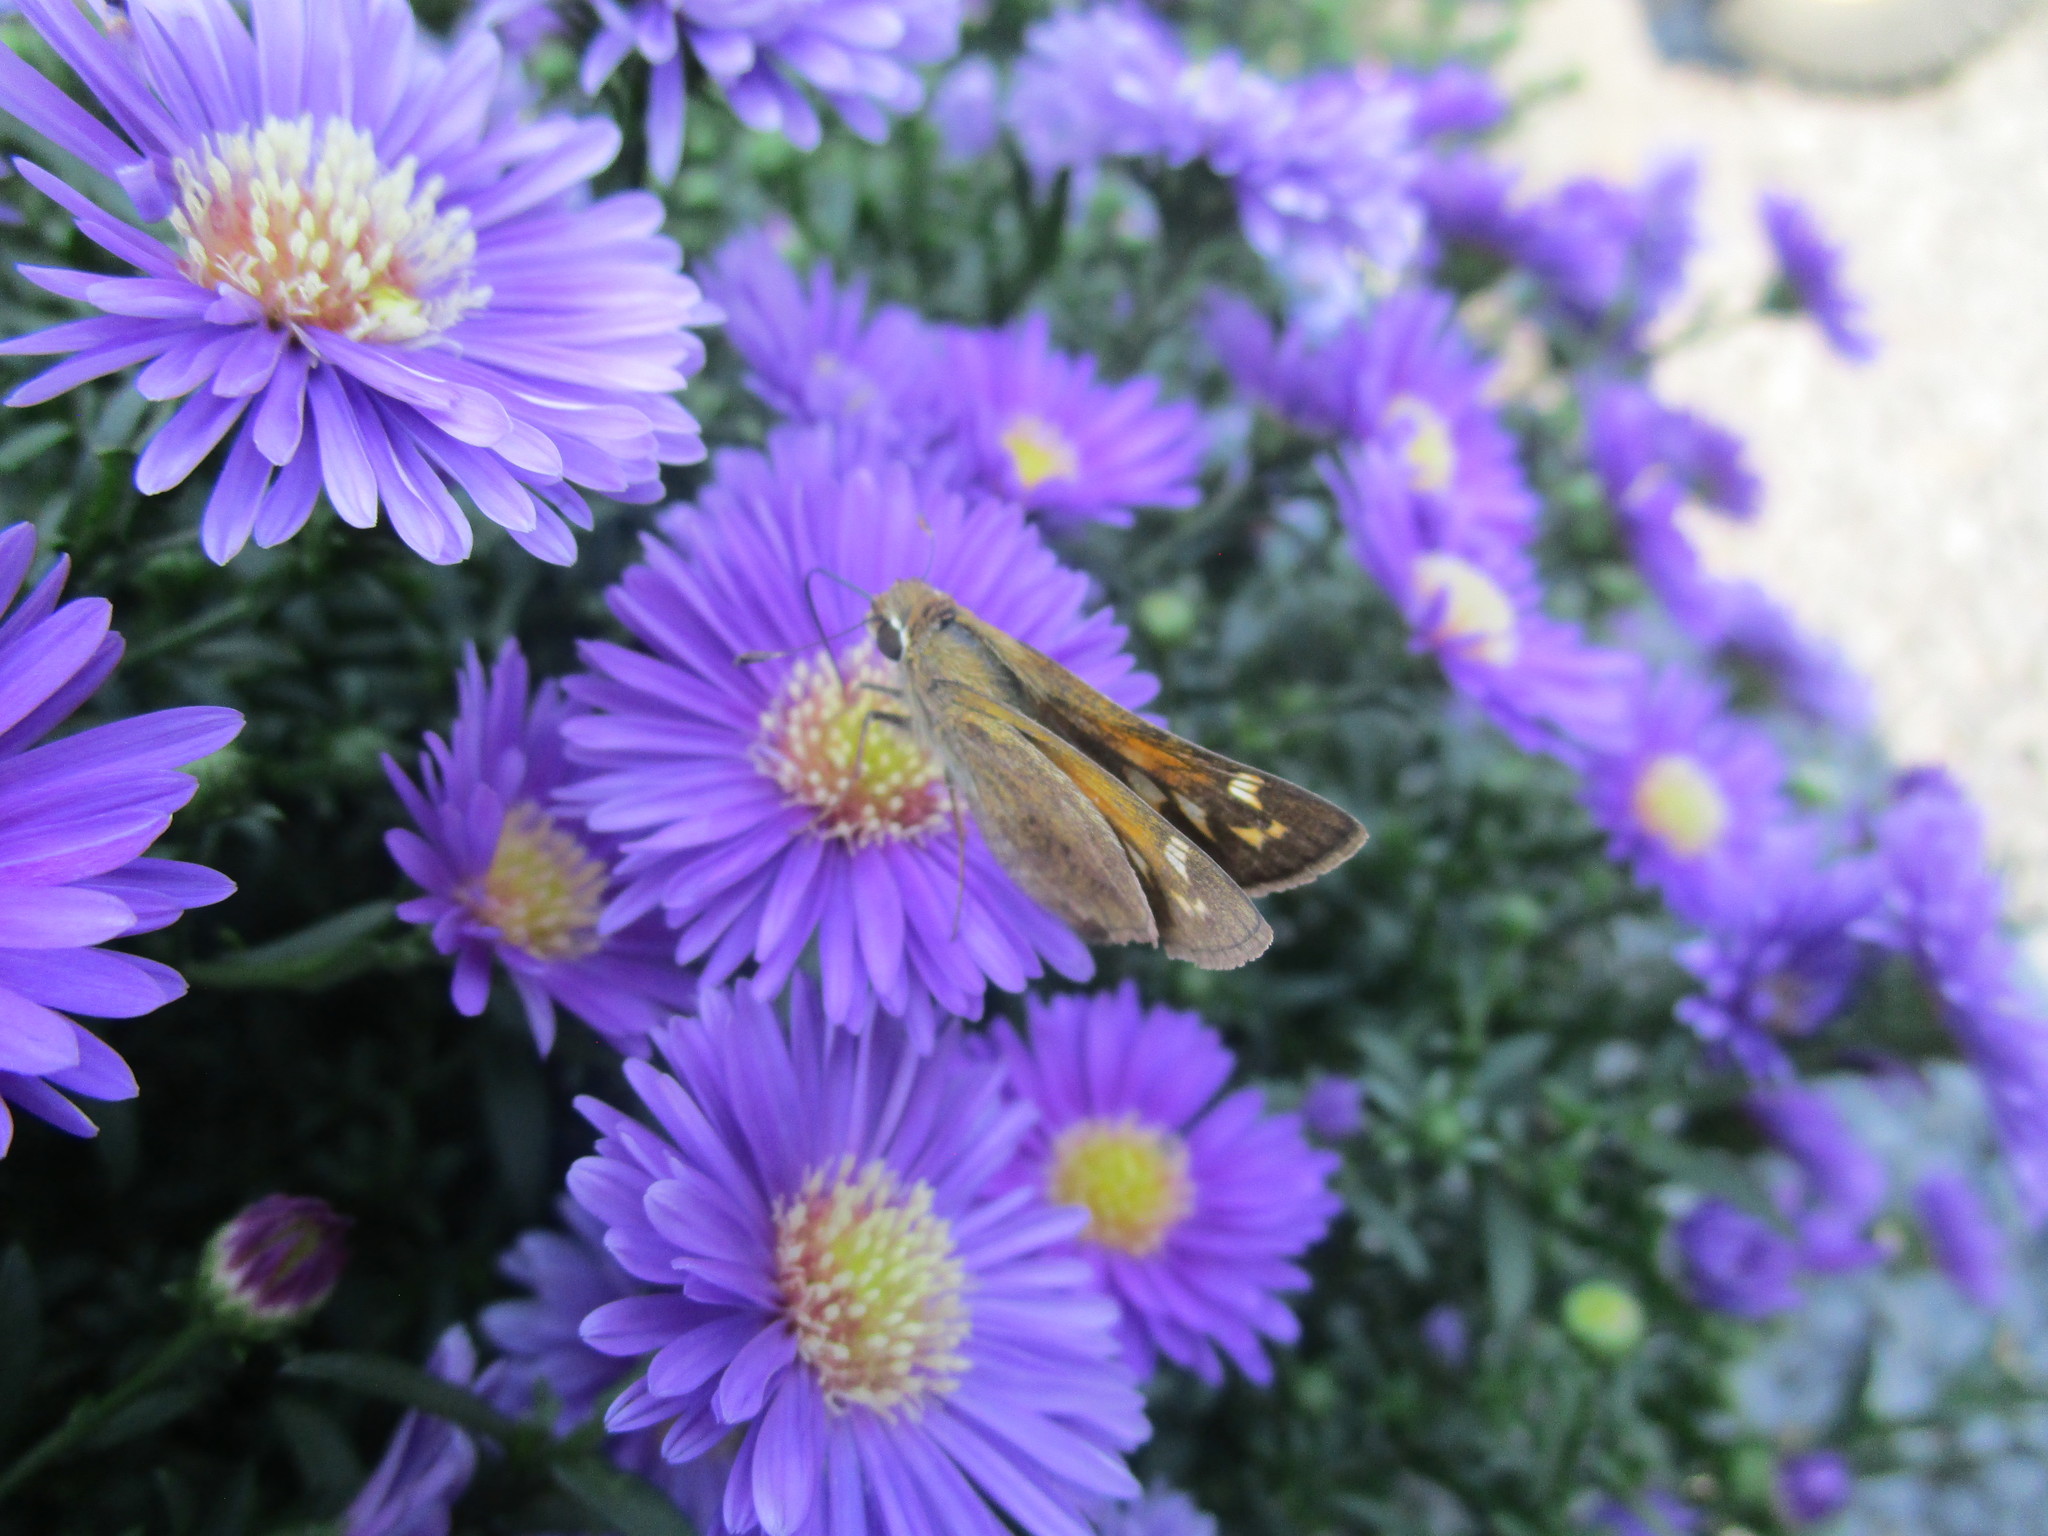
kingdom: Animalia
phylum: Arthropoda
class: Insecta
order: Lepidoptera
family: Hesperiidae
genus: Atalopedes
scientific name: Atalopedes
